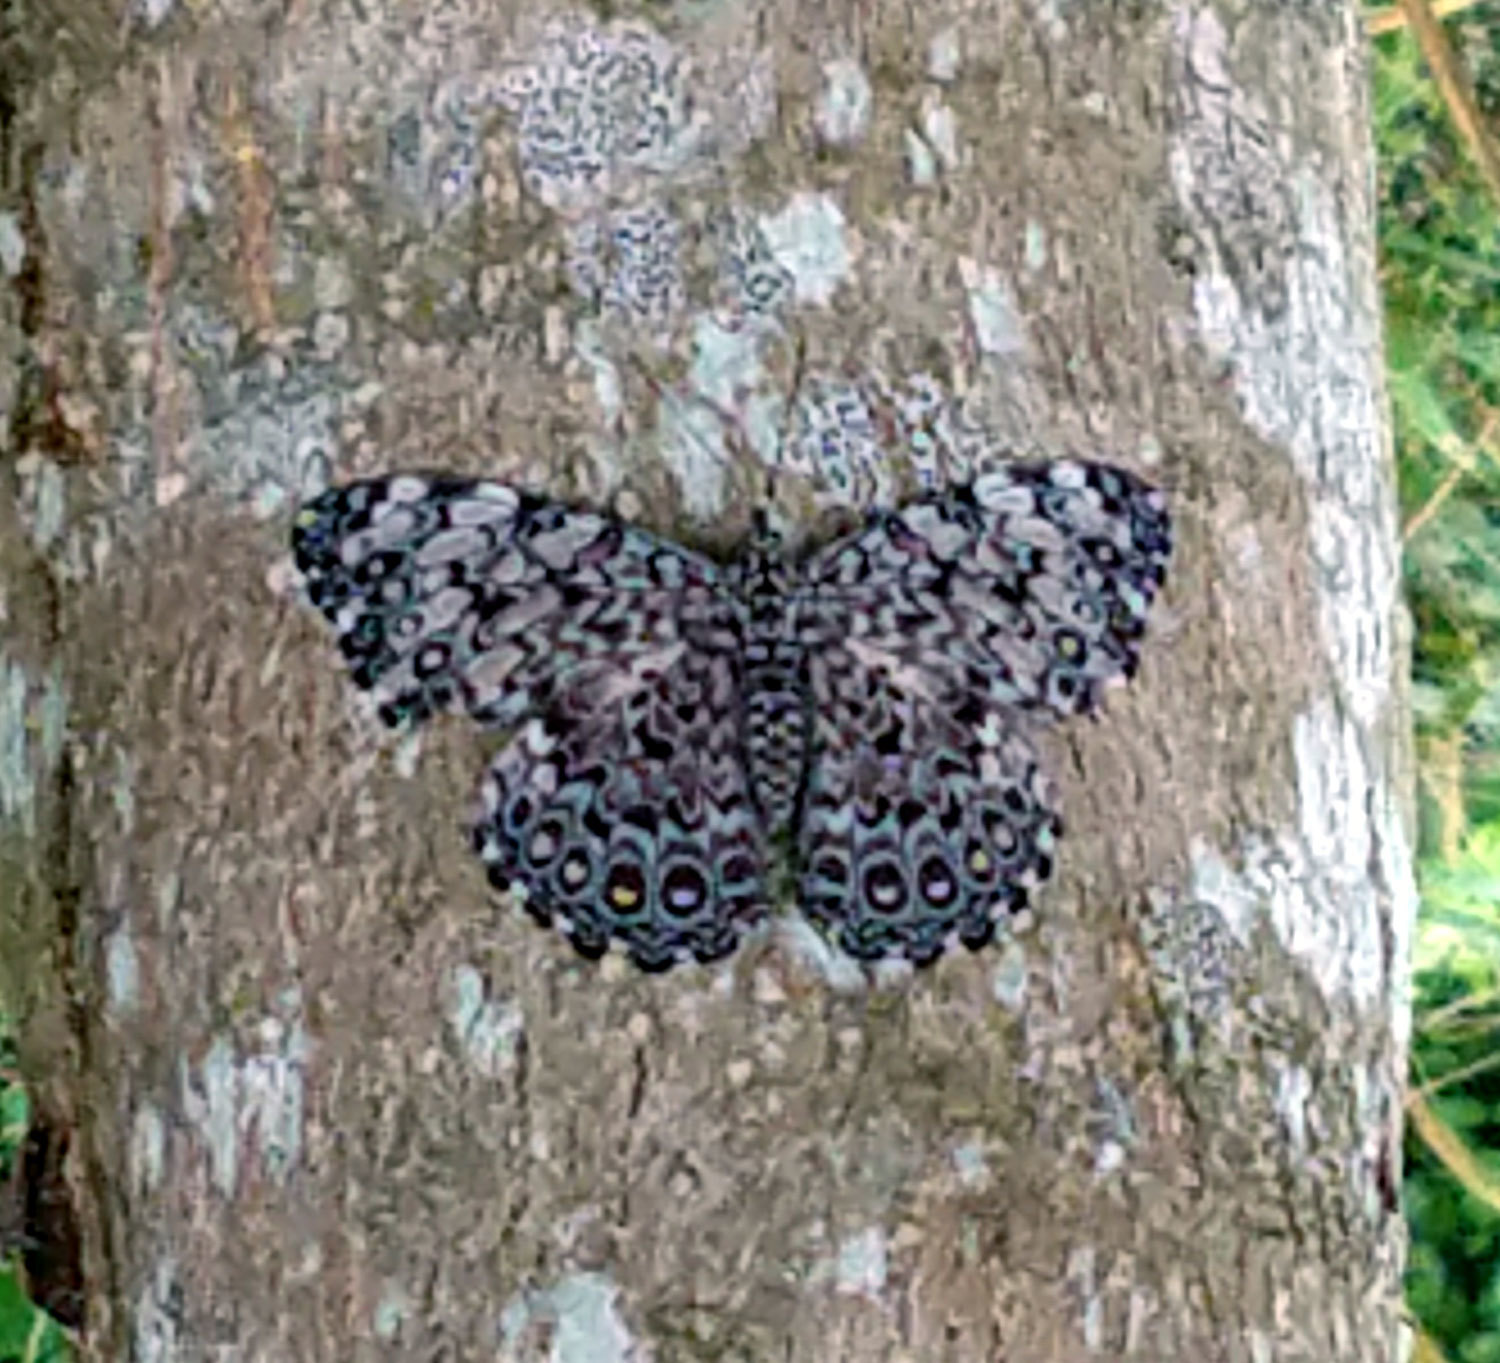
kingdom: Animalia
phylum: Arthropoda
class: Insecta
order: Lepidoptera
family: Nymphalidae
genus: Hamadryas
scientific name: Hamadryas feronia
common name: Variable cracker
